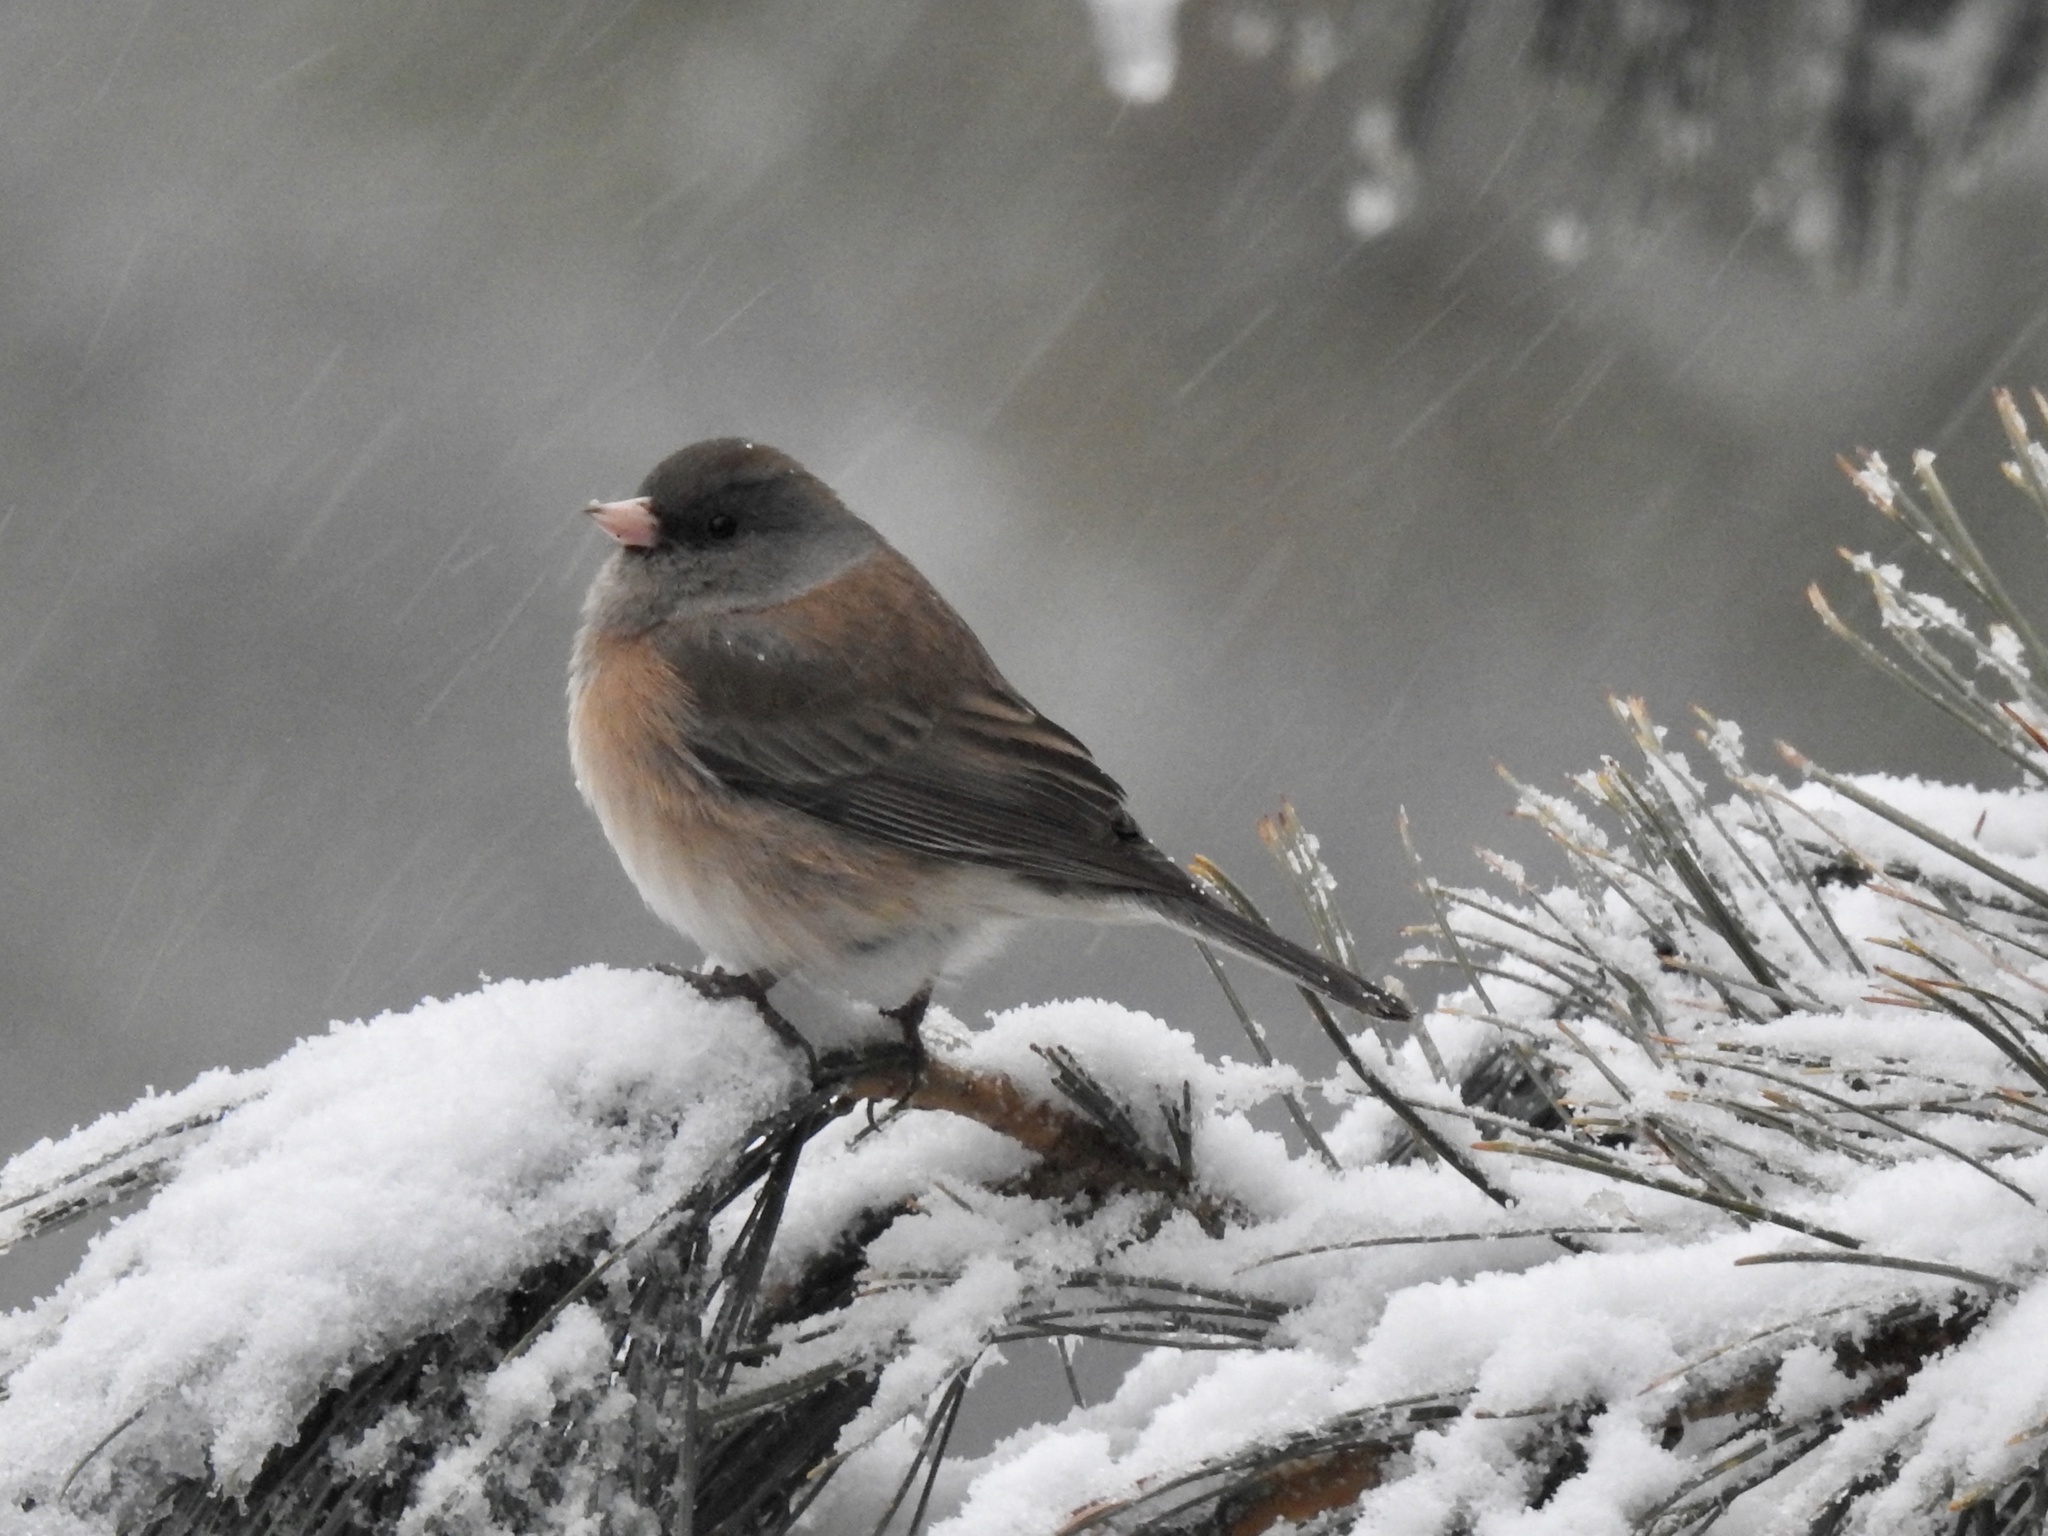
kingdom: Animalia
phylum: Chordata
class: Aves
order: Passeriformes
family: Passerellidae
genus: Junco
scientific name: Junco hyemalis
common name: Dark-eyed junco
